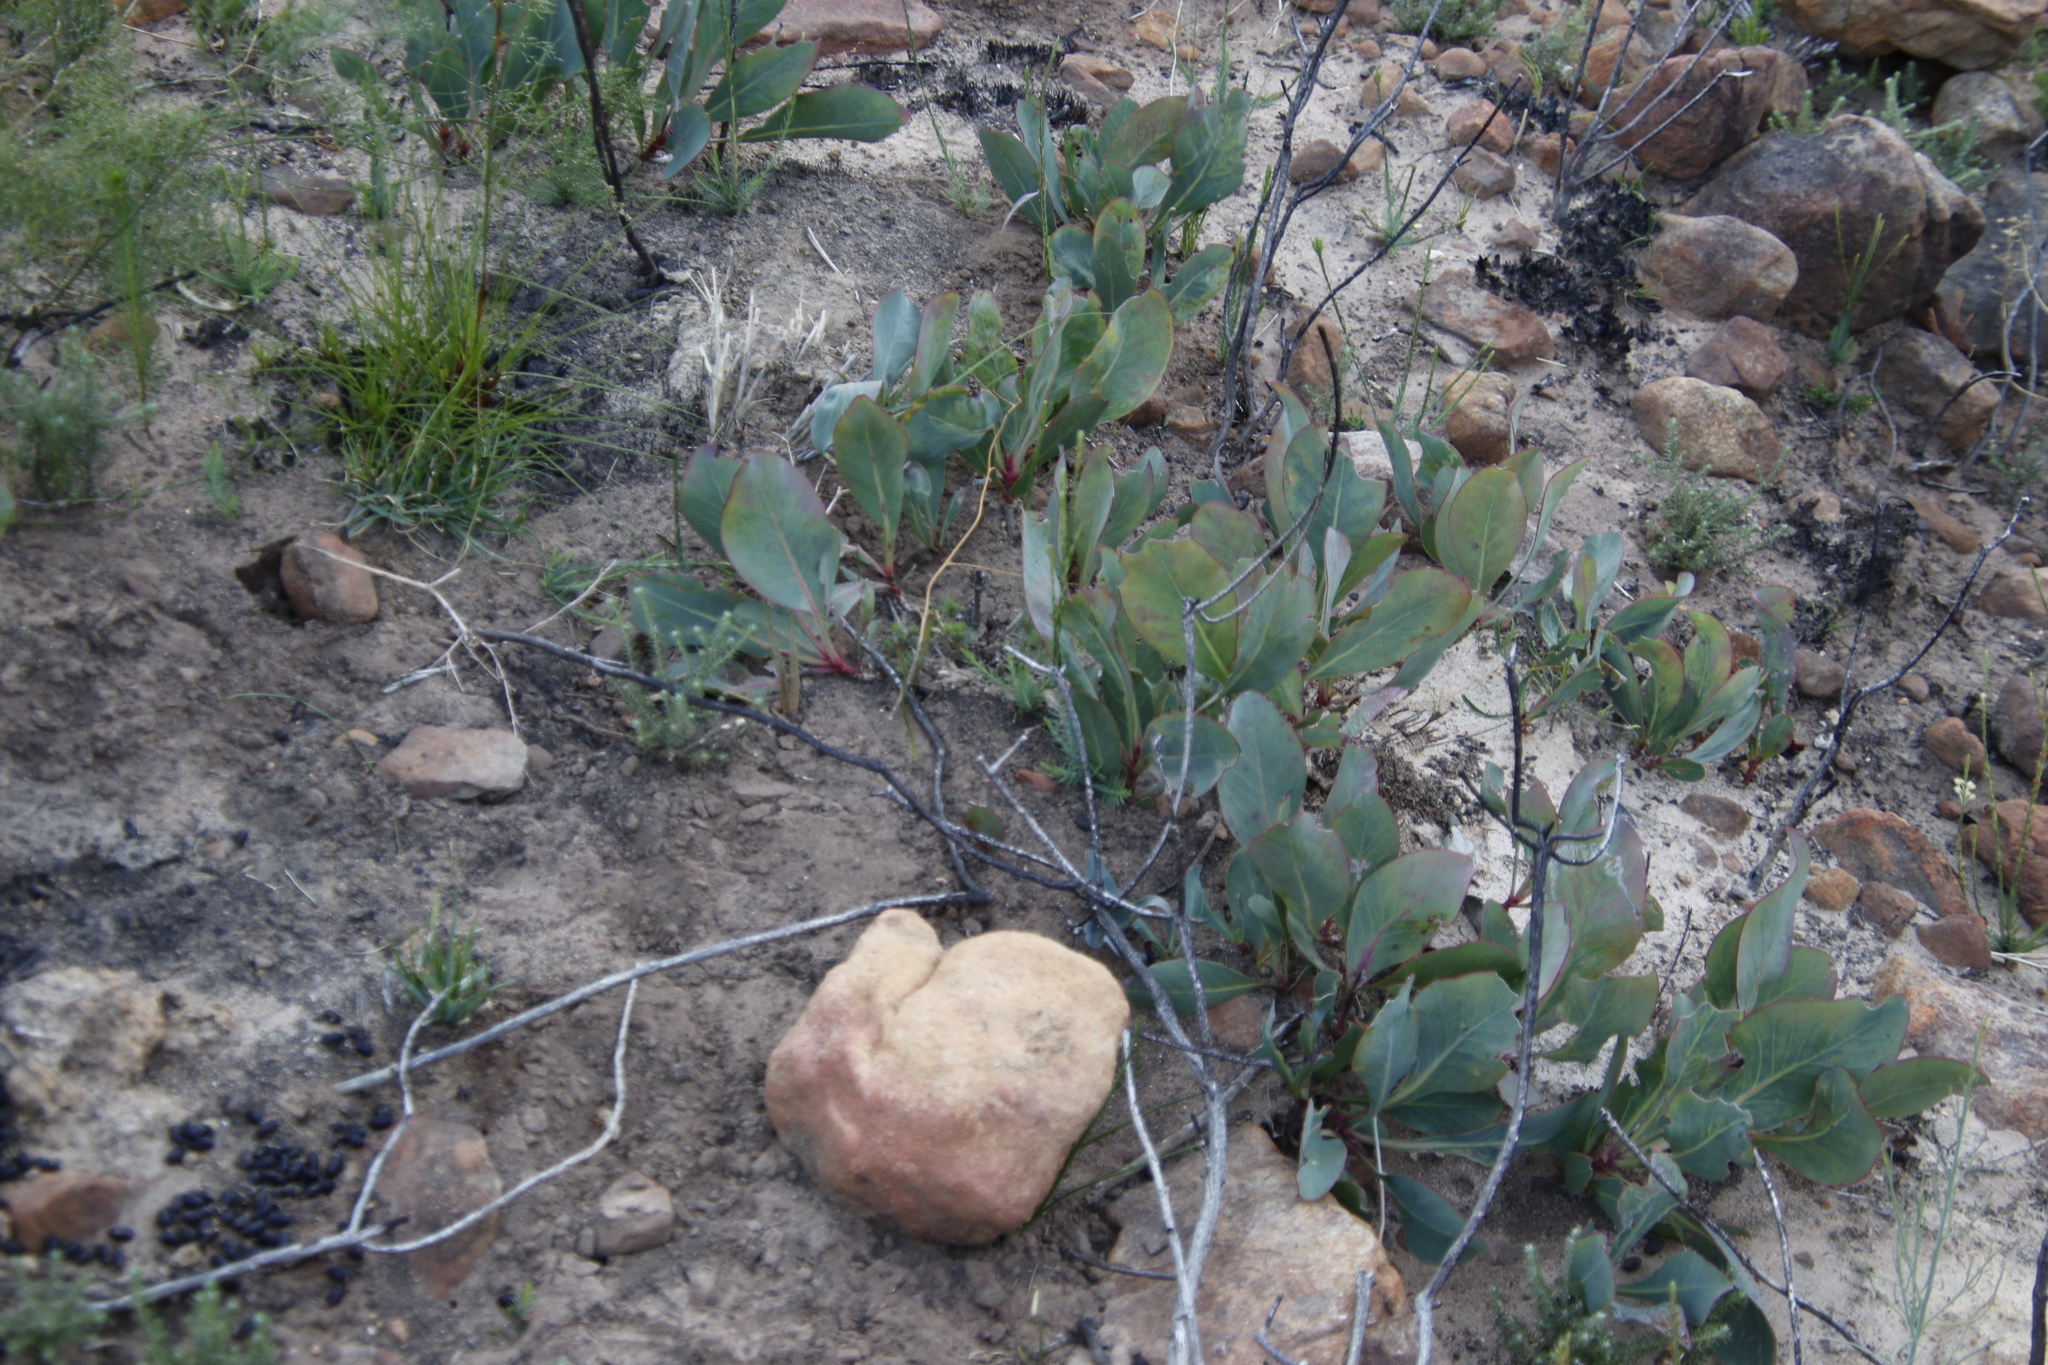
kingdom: Plantae
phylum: Tracheophyta
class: Magnoliopsida
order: Proteales
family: Proteaceae
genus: Protea
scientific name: Protea acaulos
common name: Common ground sugarbush
